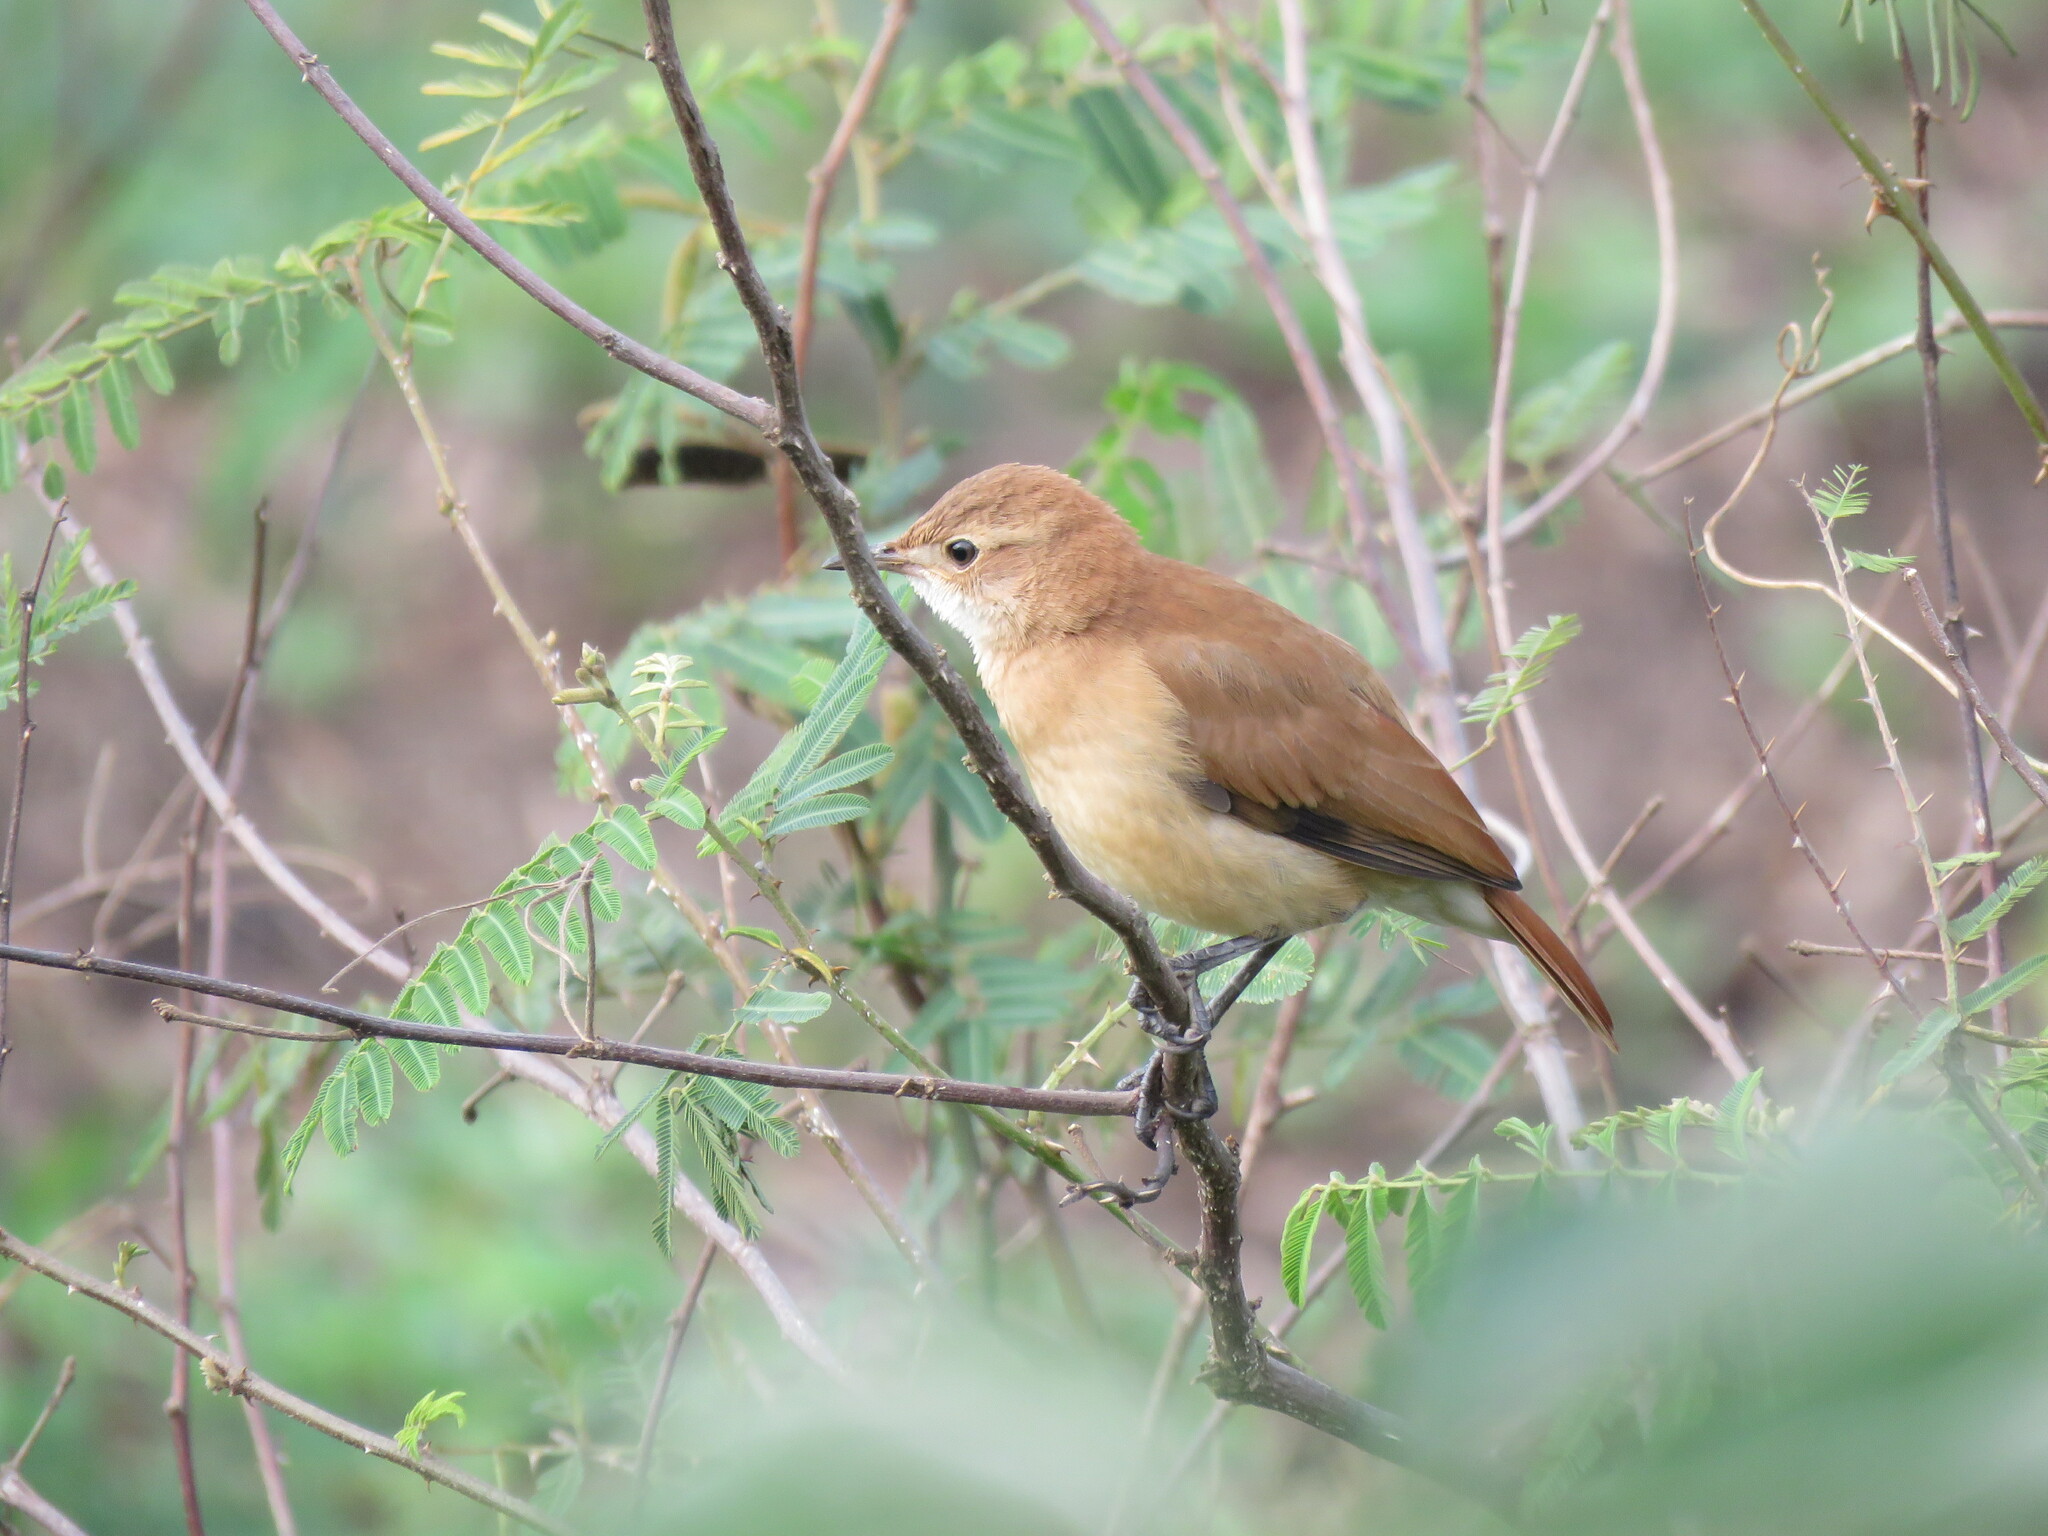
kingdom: Animalia
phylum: Chordata
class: Aves
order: Passeriformes
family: Furnariidae
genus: Furnarius
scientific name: Furnarius rufus
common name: Rufous hornero
